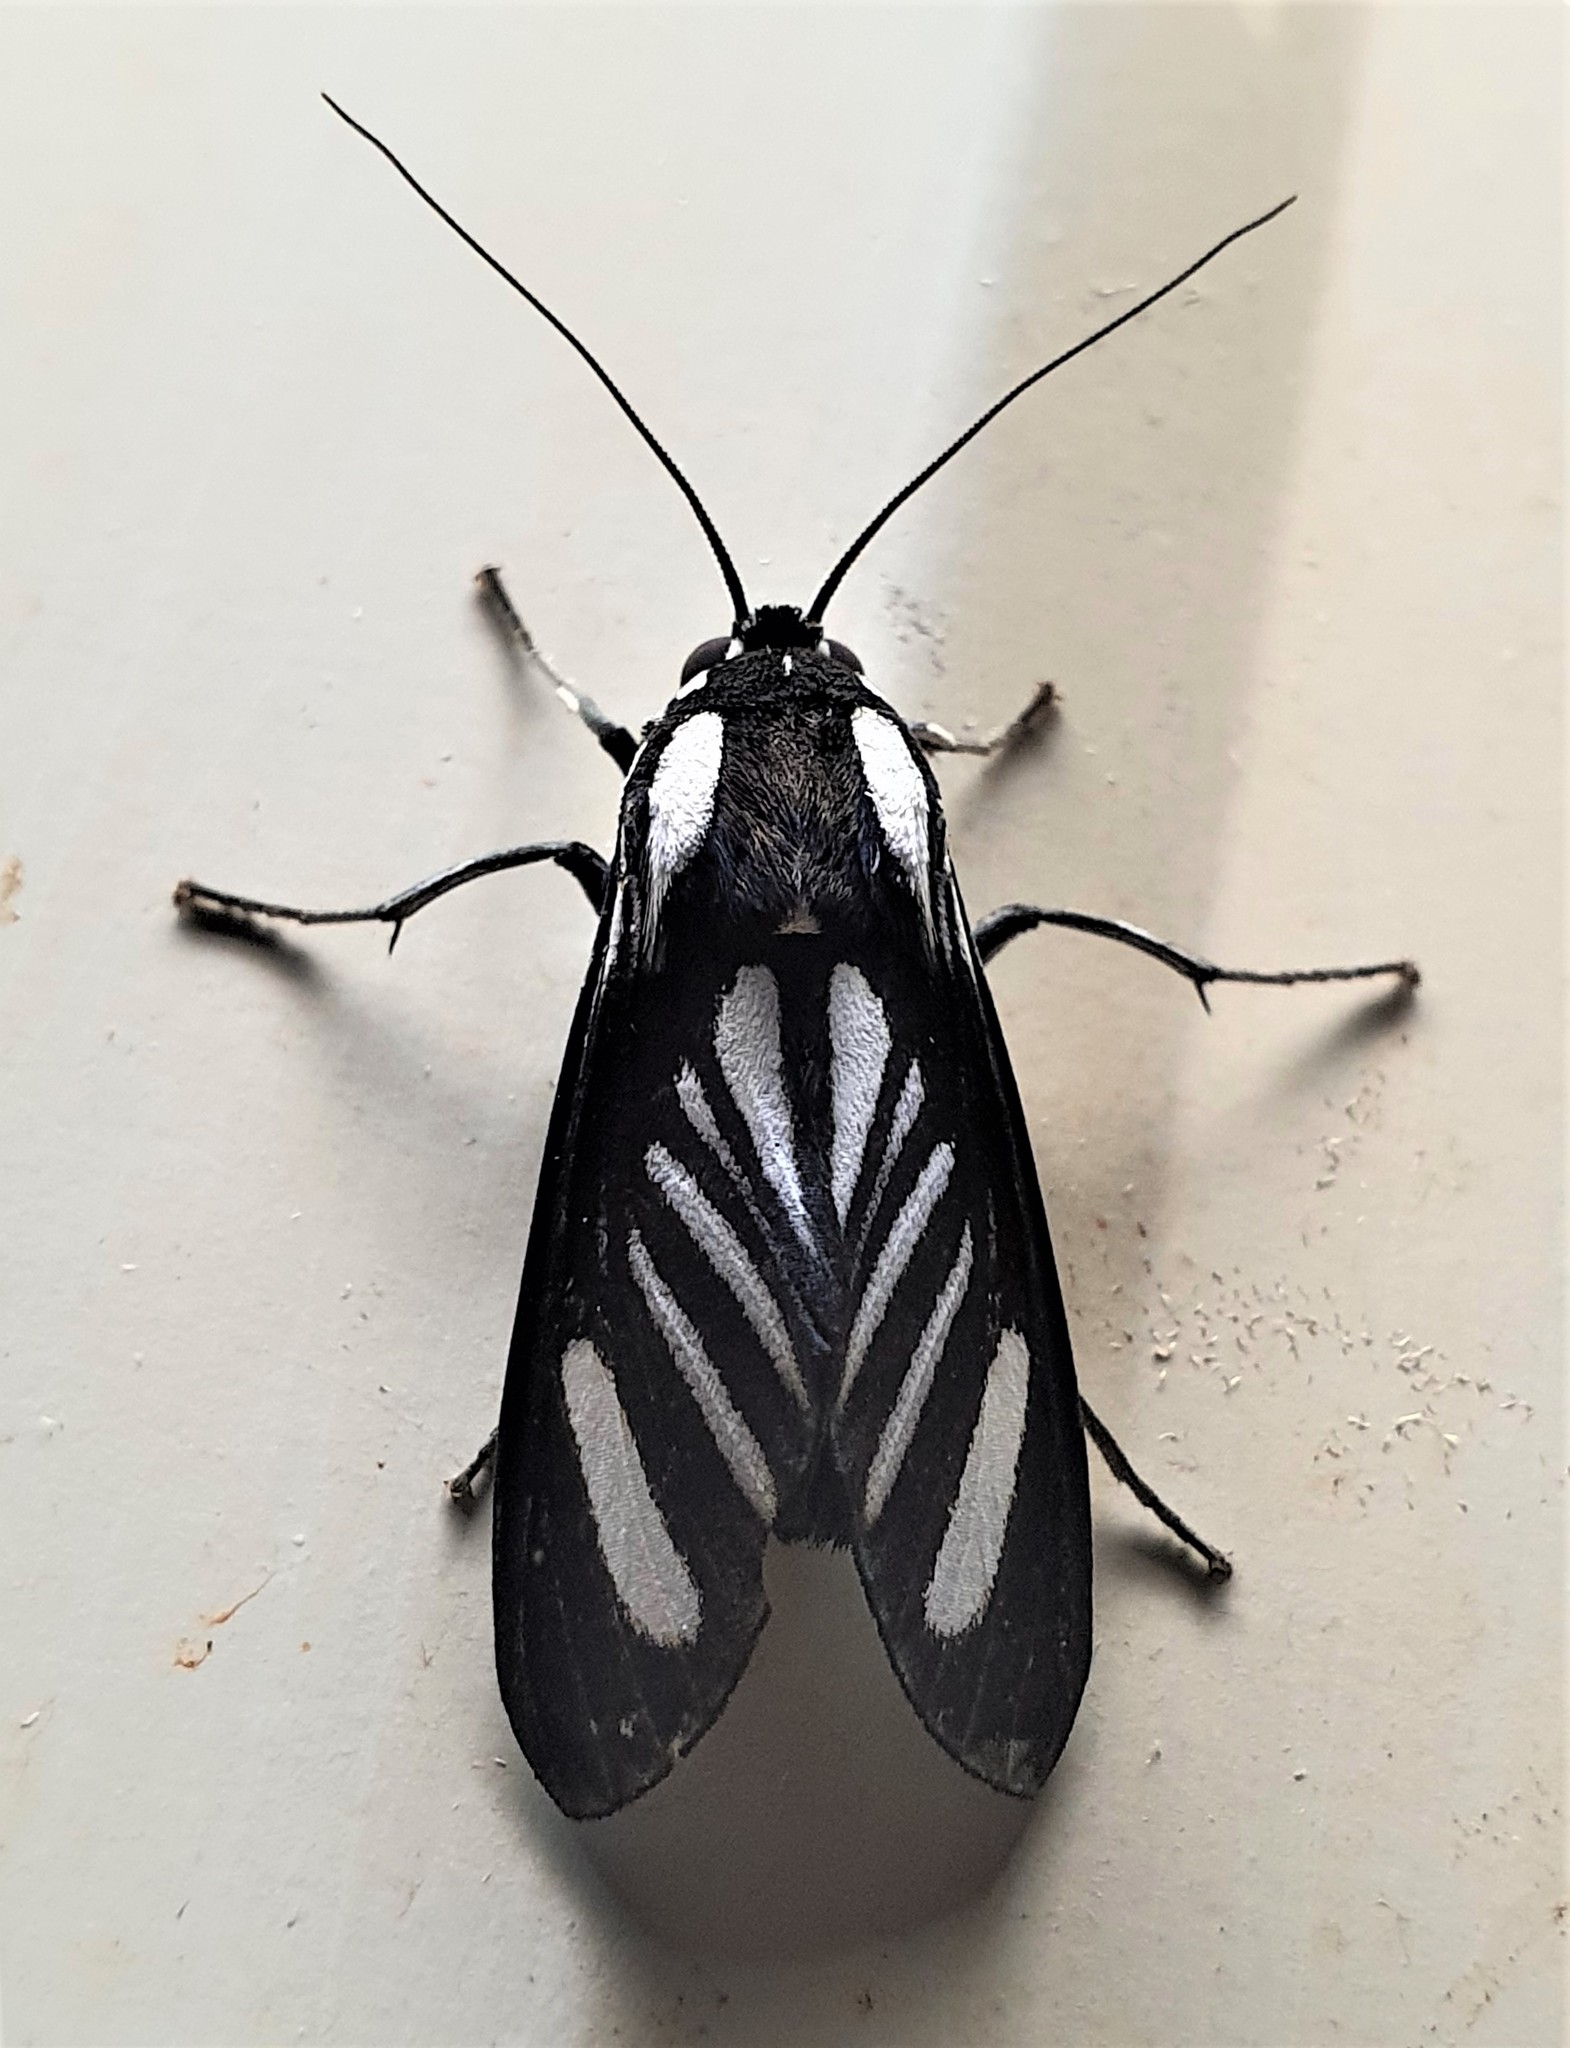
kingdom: Animalia
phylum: Arthropoda
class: Insecta
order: Lepidoptera
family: Erebidae
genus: Rhipha
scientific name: Rhipha strigosa
